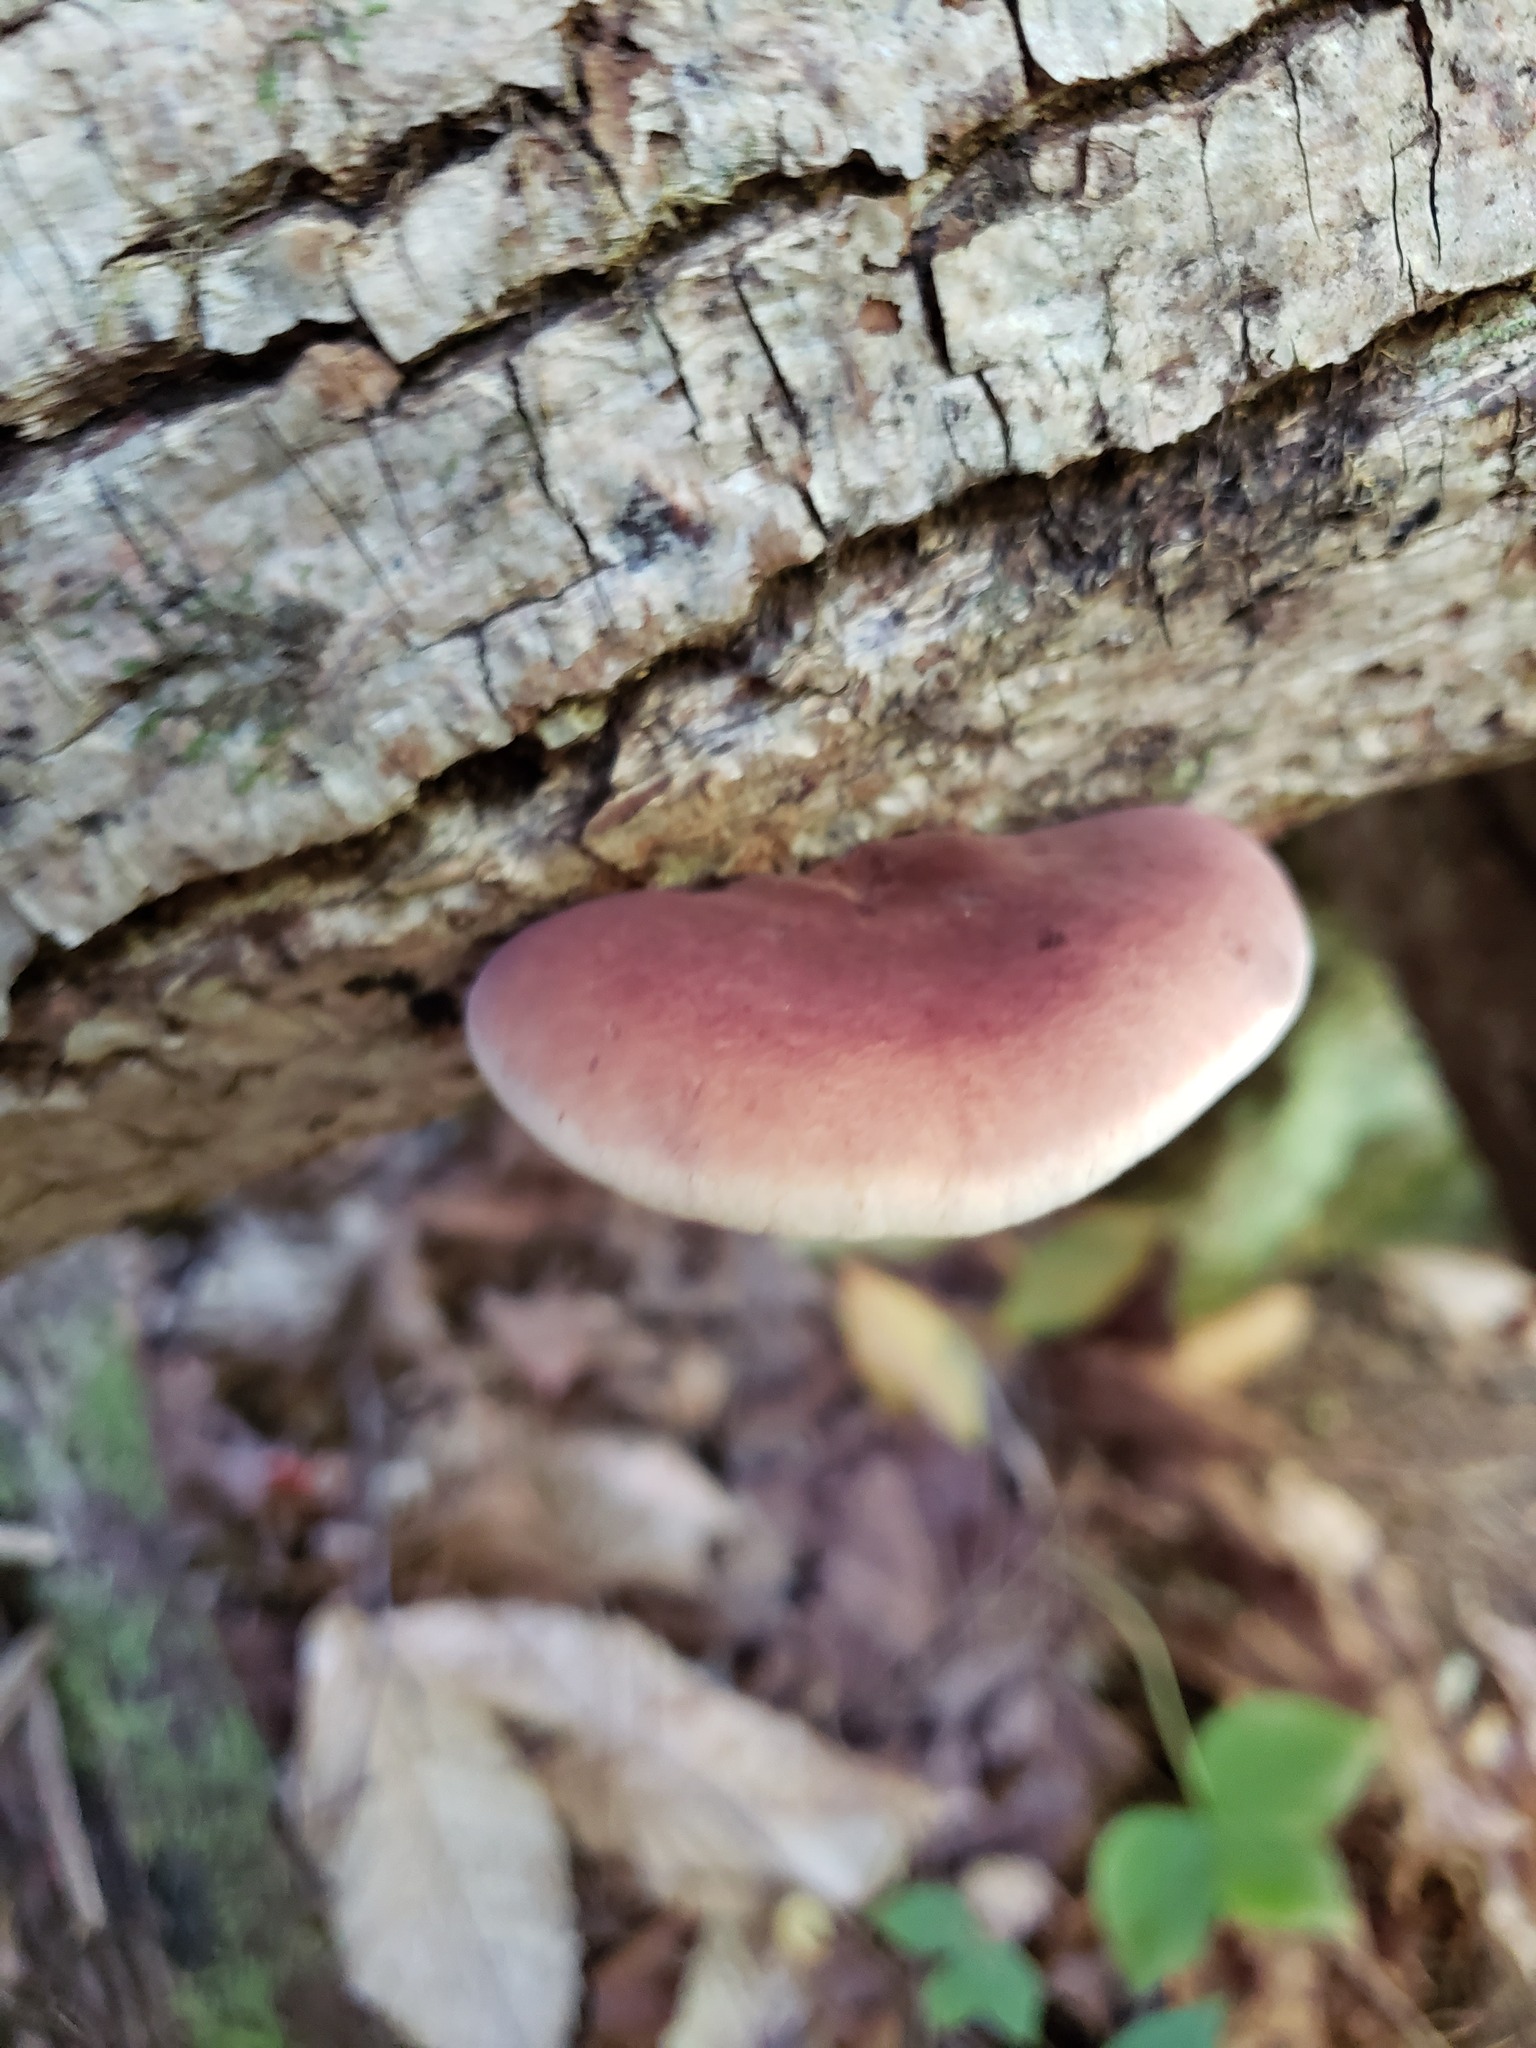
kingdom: Fungi
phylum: Basidiomycota
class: Agaricomycetes
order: Polyporales
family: Ischnodermataceae
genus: Ischnoderma
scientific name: Ischnoderma resinosum
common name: Resinous polypore
